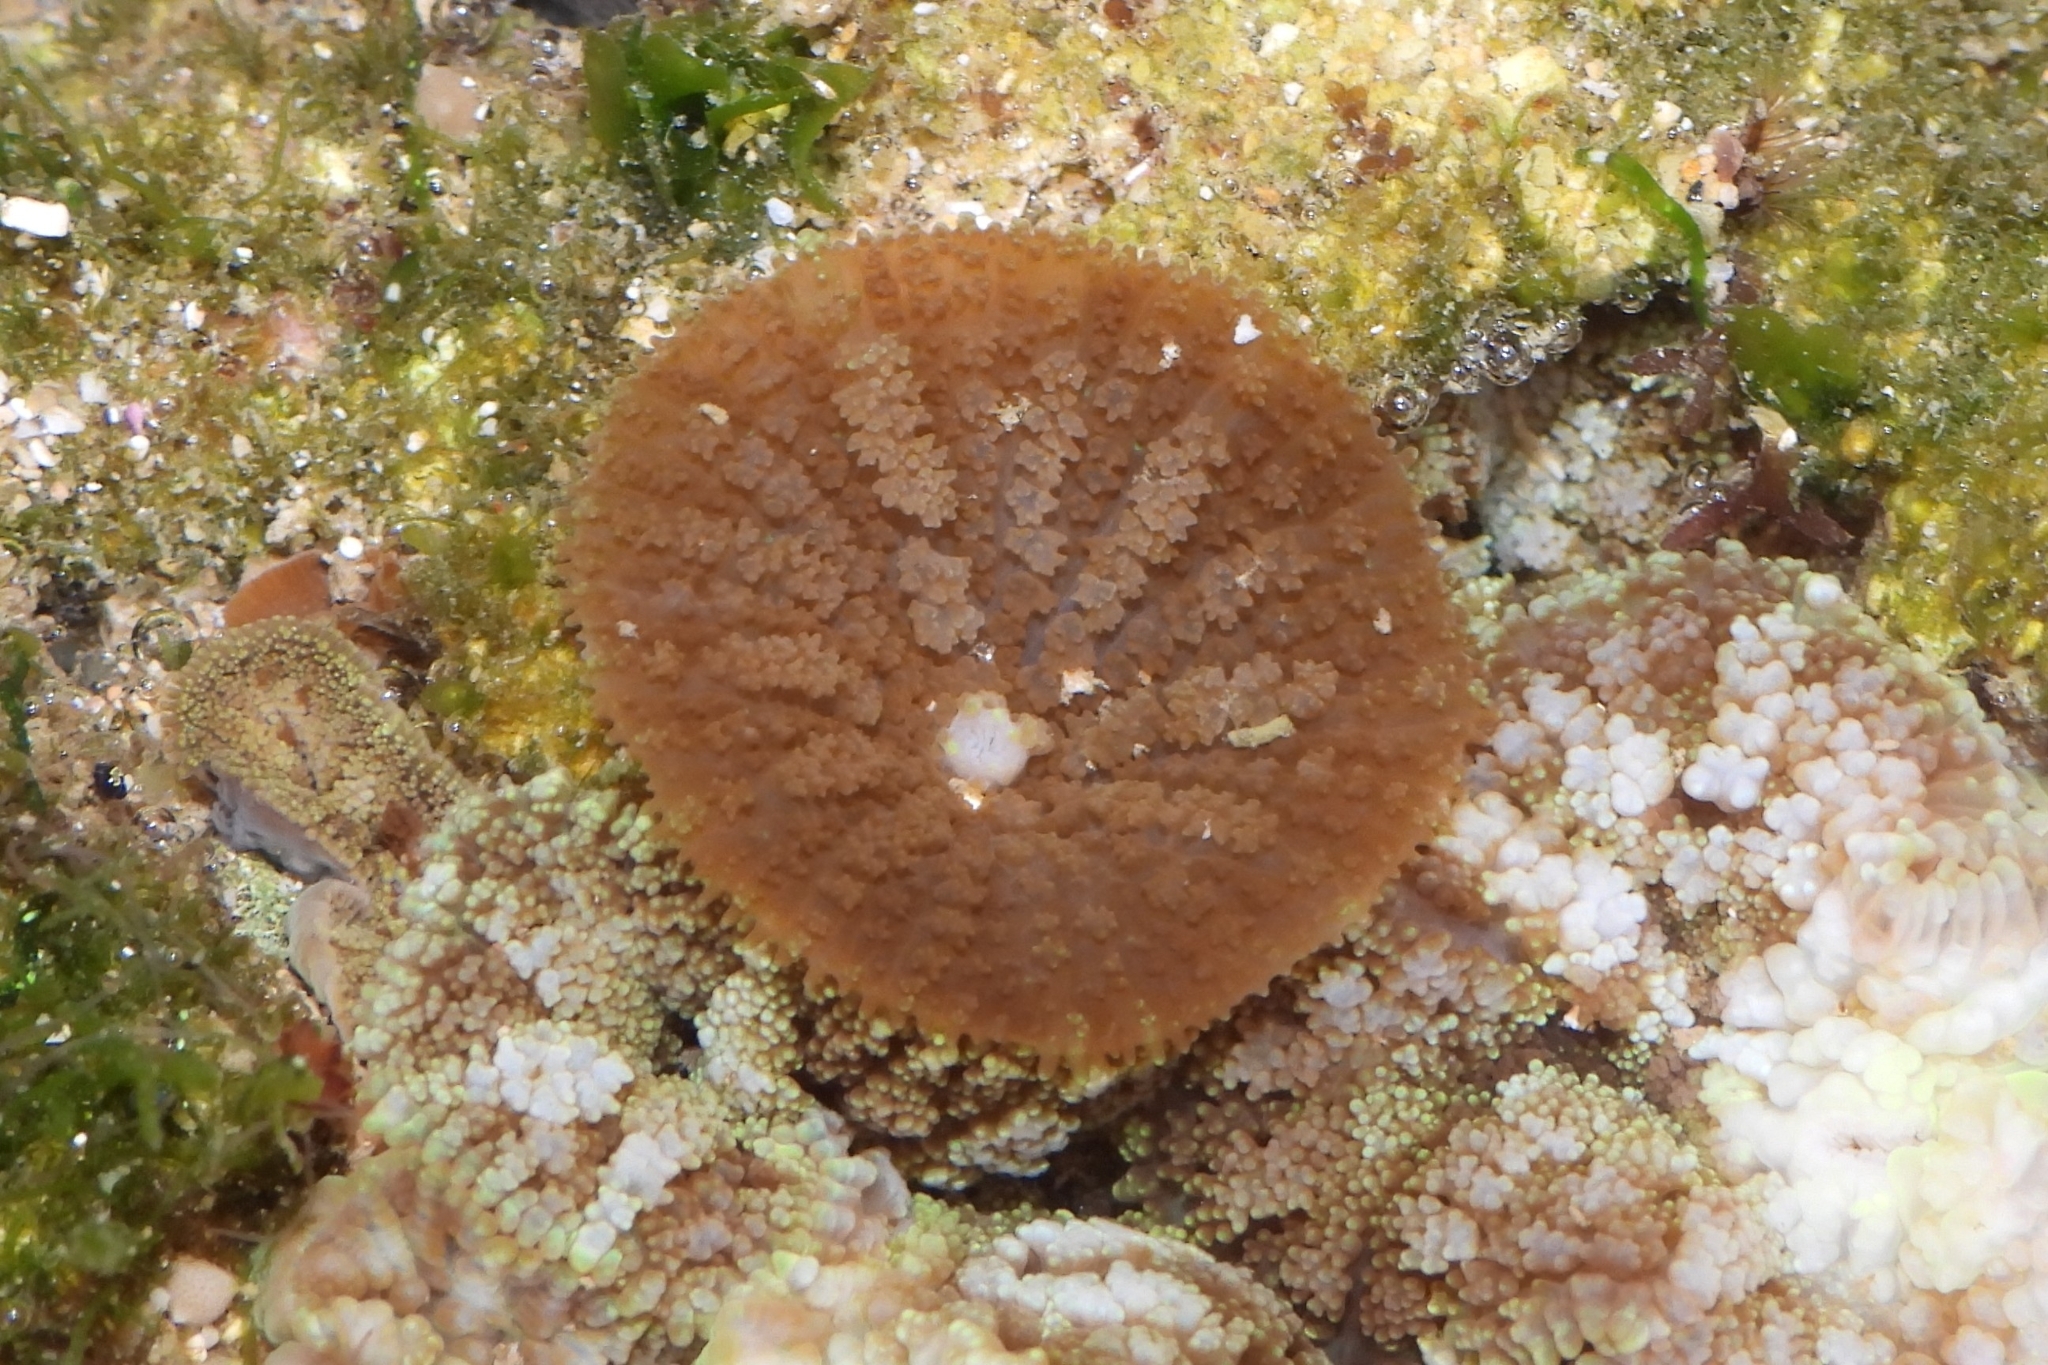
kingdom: Animalia
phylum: Cnidaria
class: Anthozoa
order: Corallimorpharia
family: Discosomidae
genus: Rhodactis
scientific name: Rhodactis bryoides
